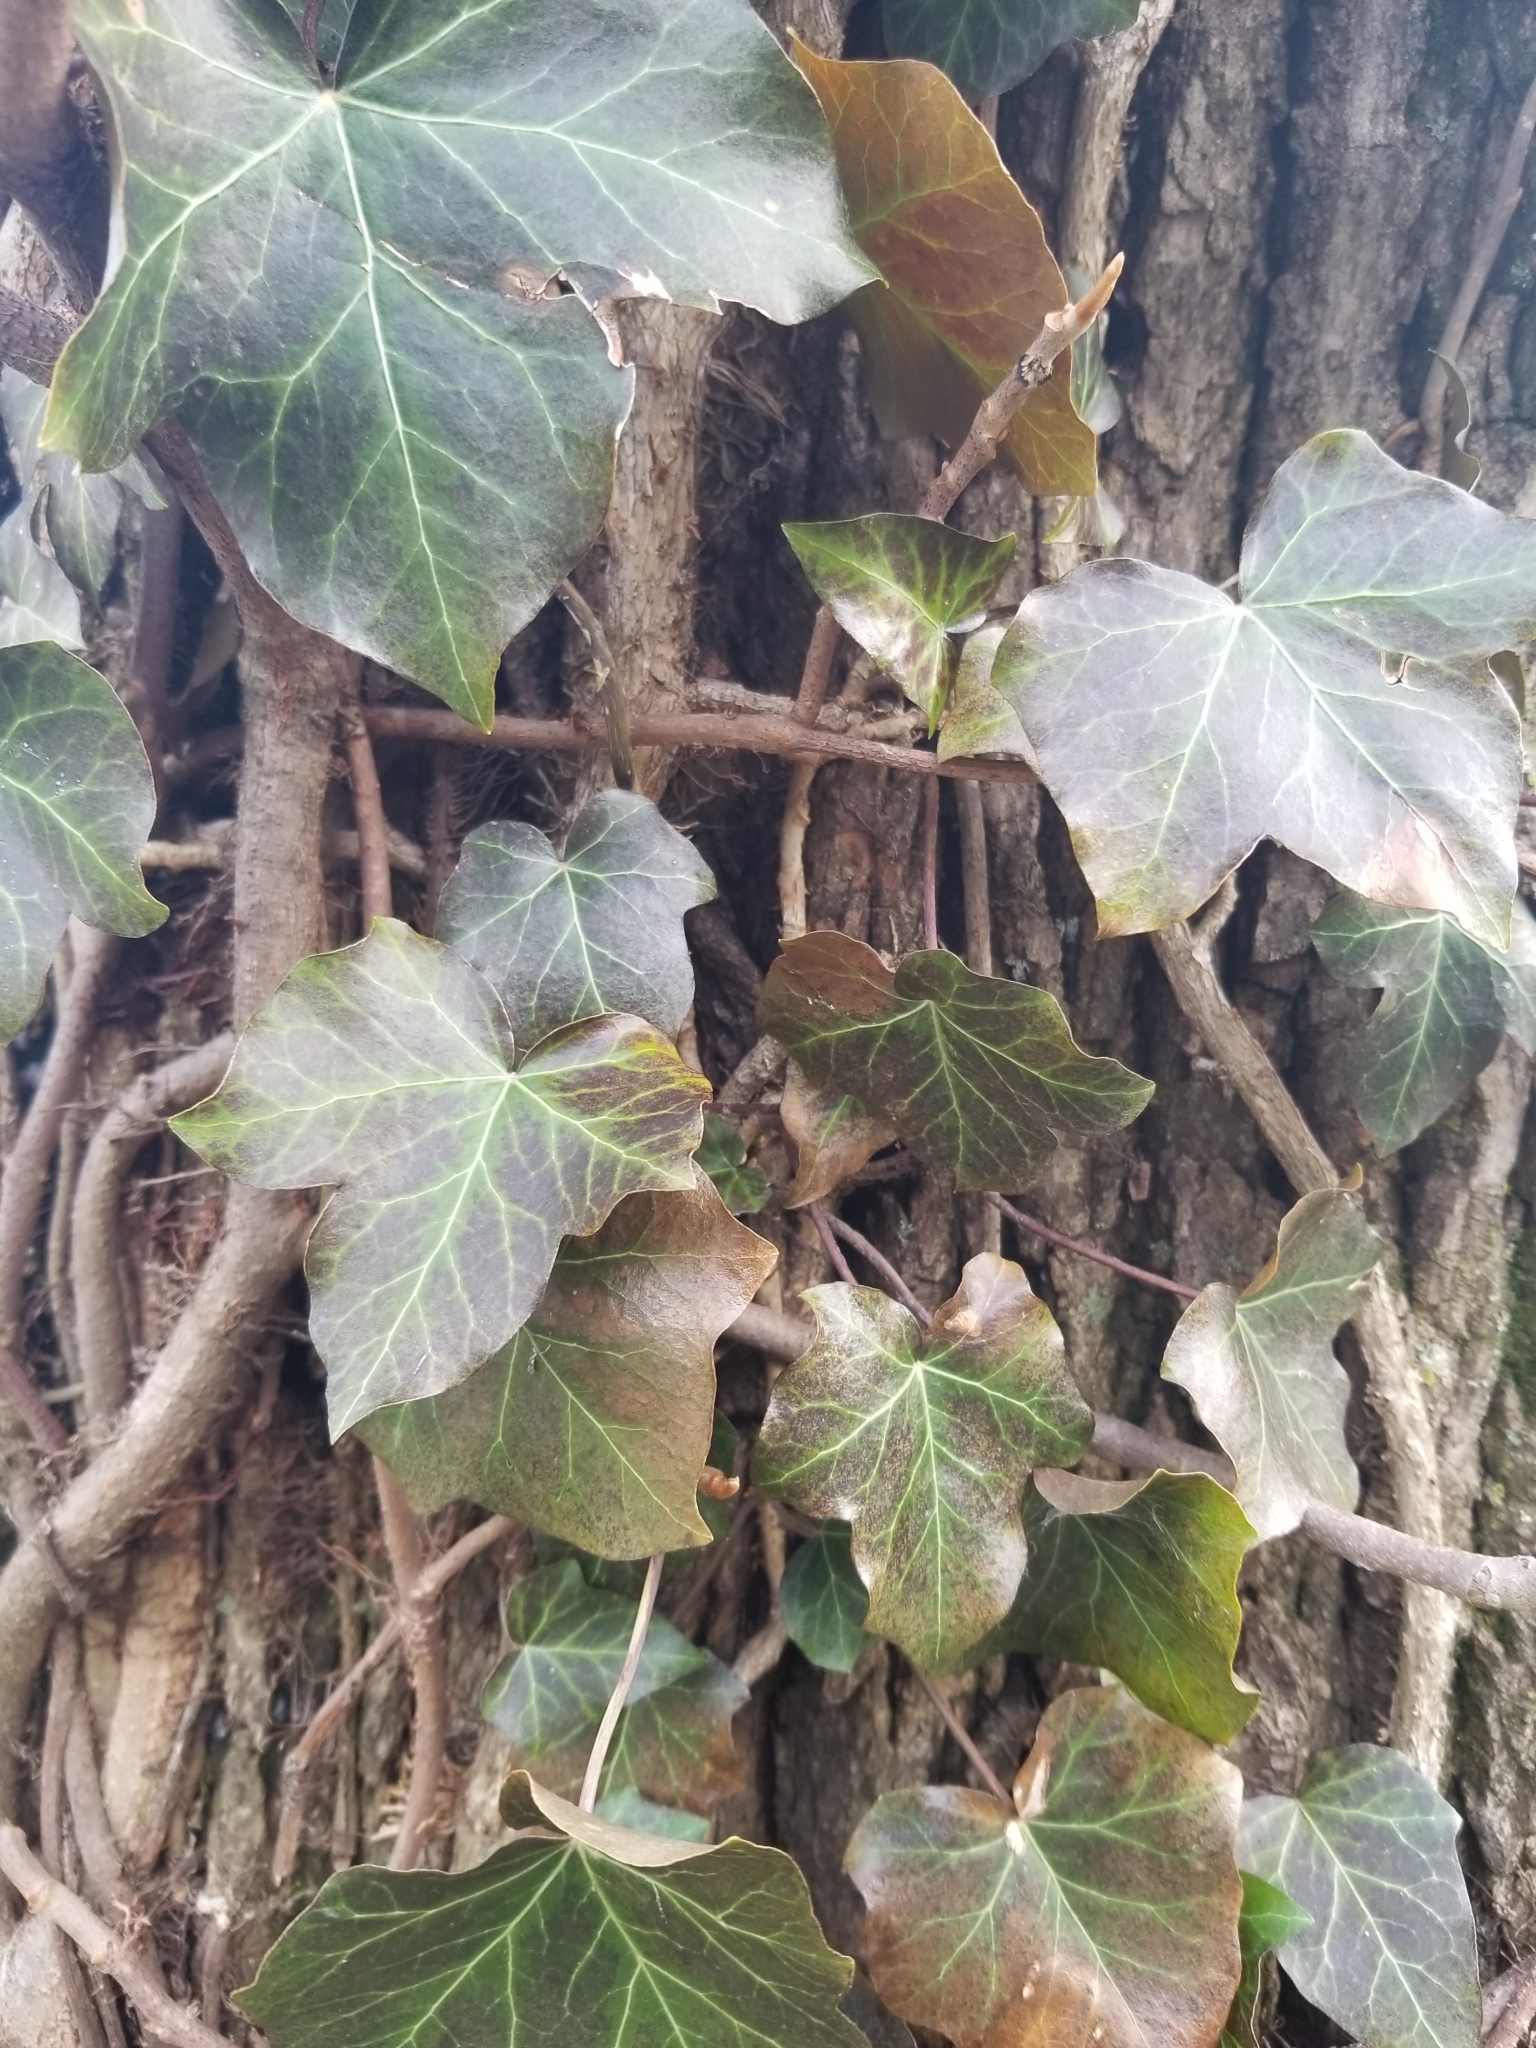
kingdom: Plantae
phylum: Tracheophyta
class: Magnoliopsida
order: Apiales
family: Araliaceae
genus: Hedera
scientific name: Hedera helix
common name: Ivy
